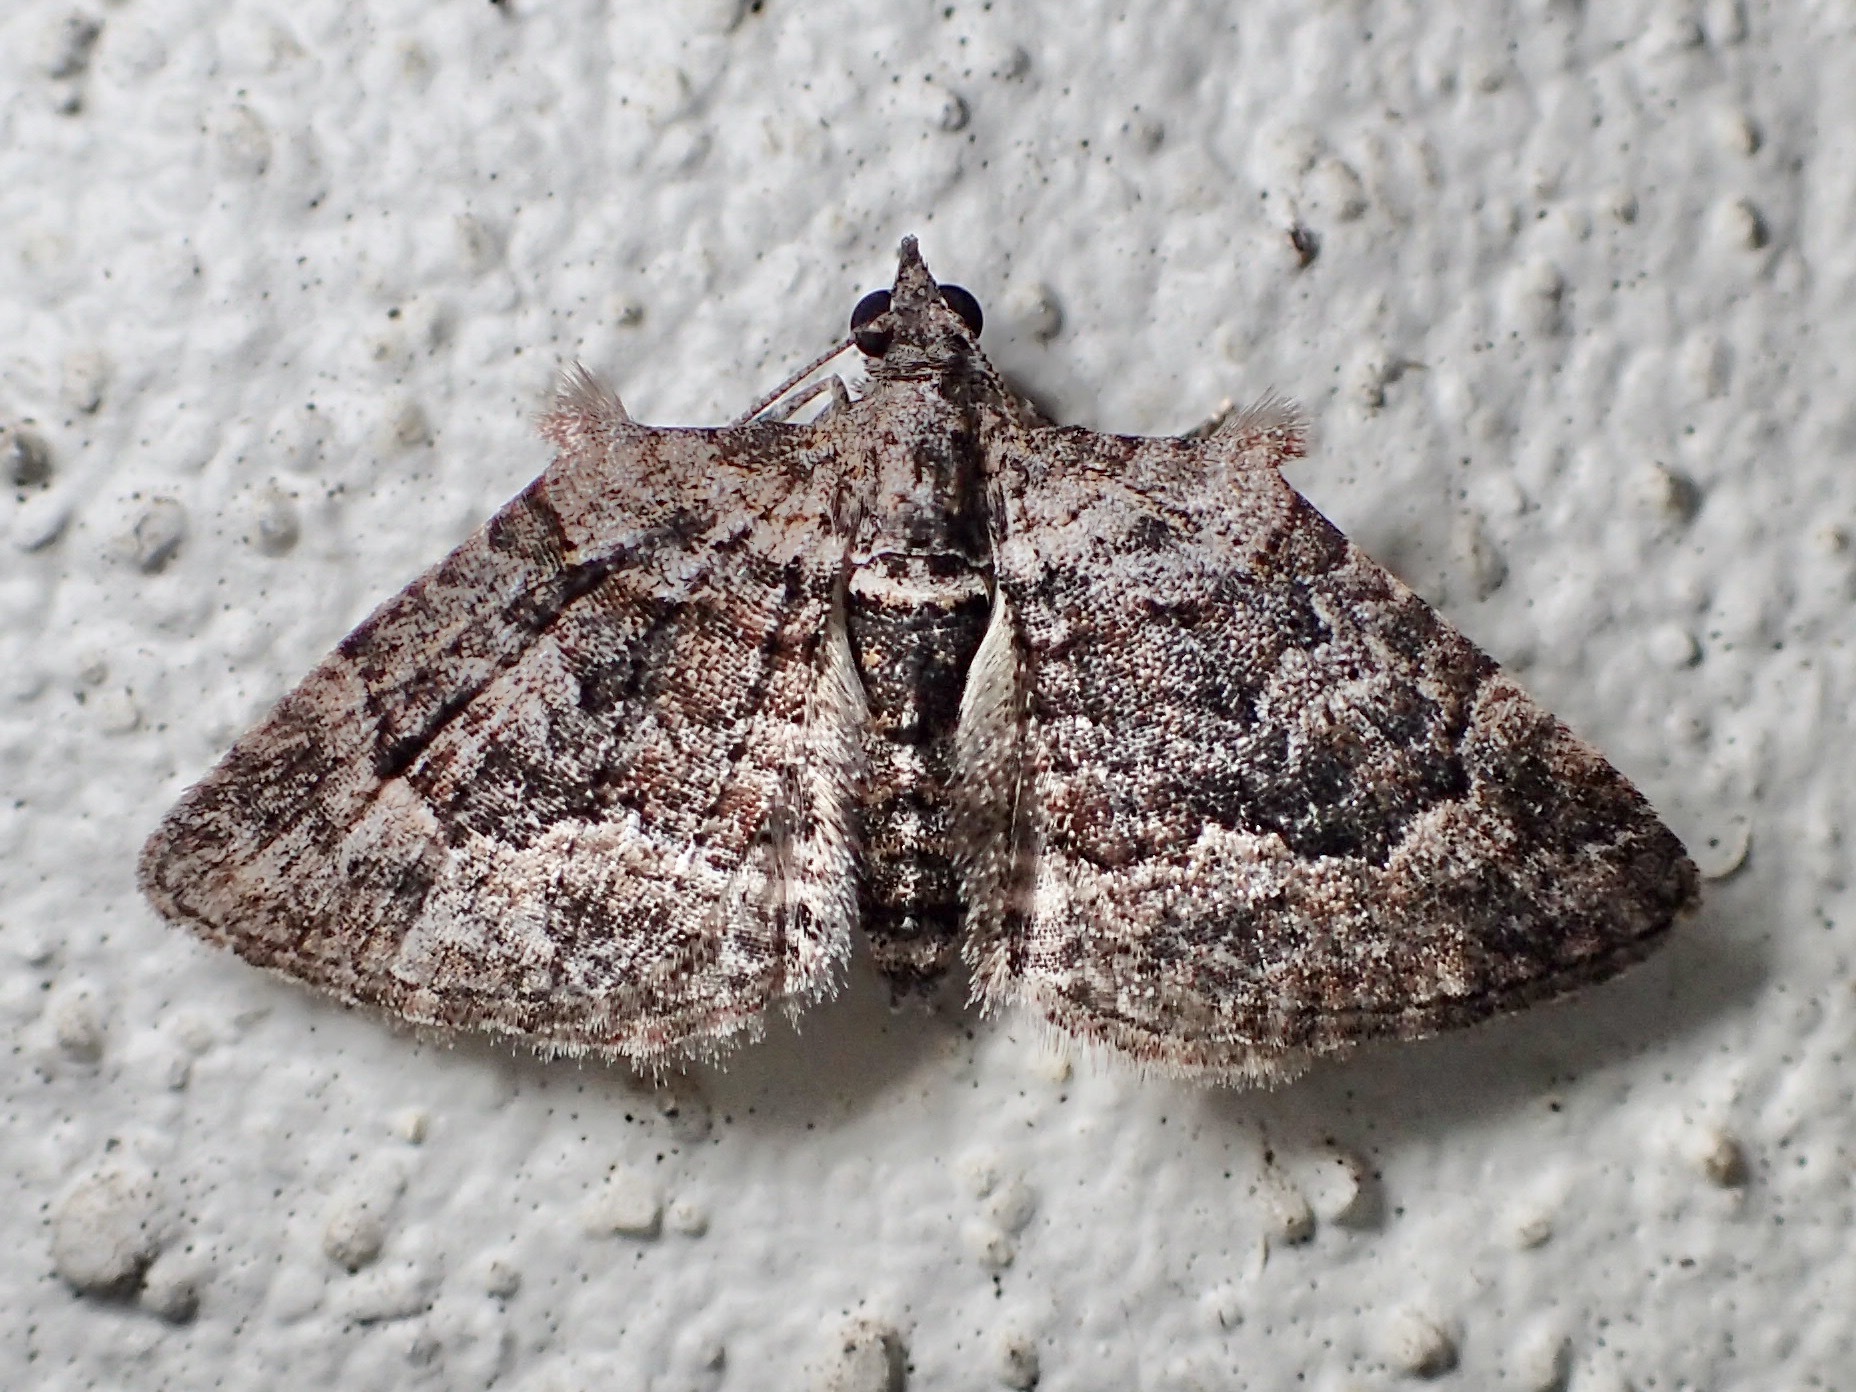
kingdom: Animalia
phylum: Arthropoda
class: Insecta
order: Lepidoptera
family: Geometridae
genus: Phrissogonus
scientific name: Phrissogonus laticostata
